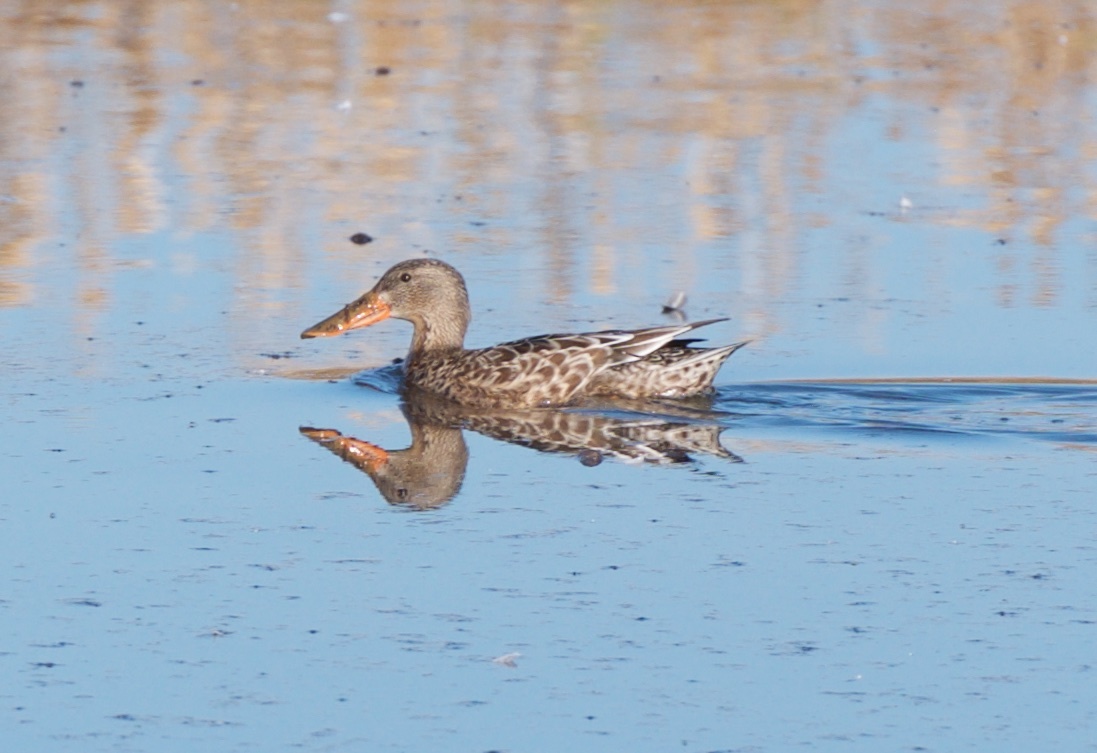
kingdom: Animalia
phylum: Chordata
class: Aves
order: Anseriformes
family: Anatidae
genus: Spatula
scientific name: Spatula clypeata
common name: Northern shoveler
